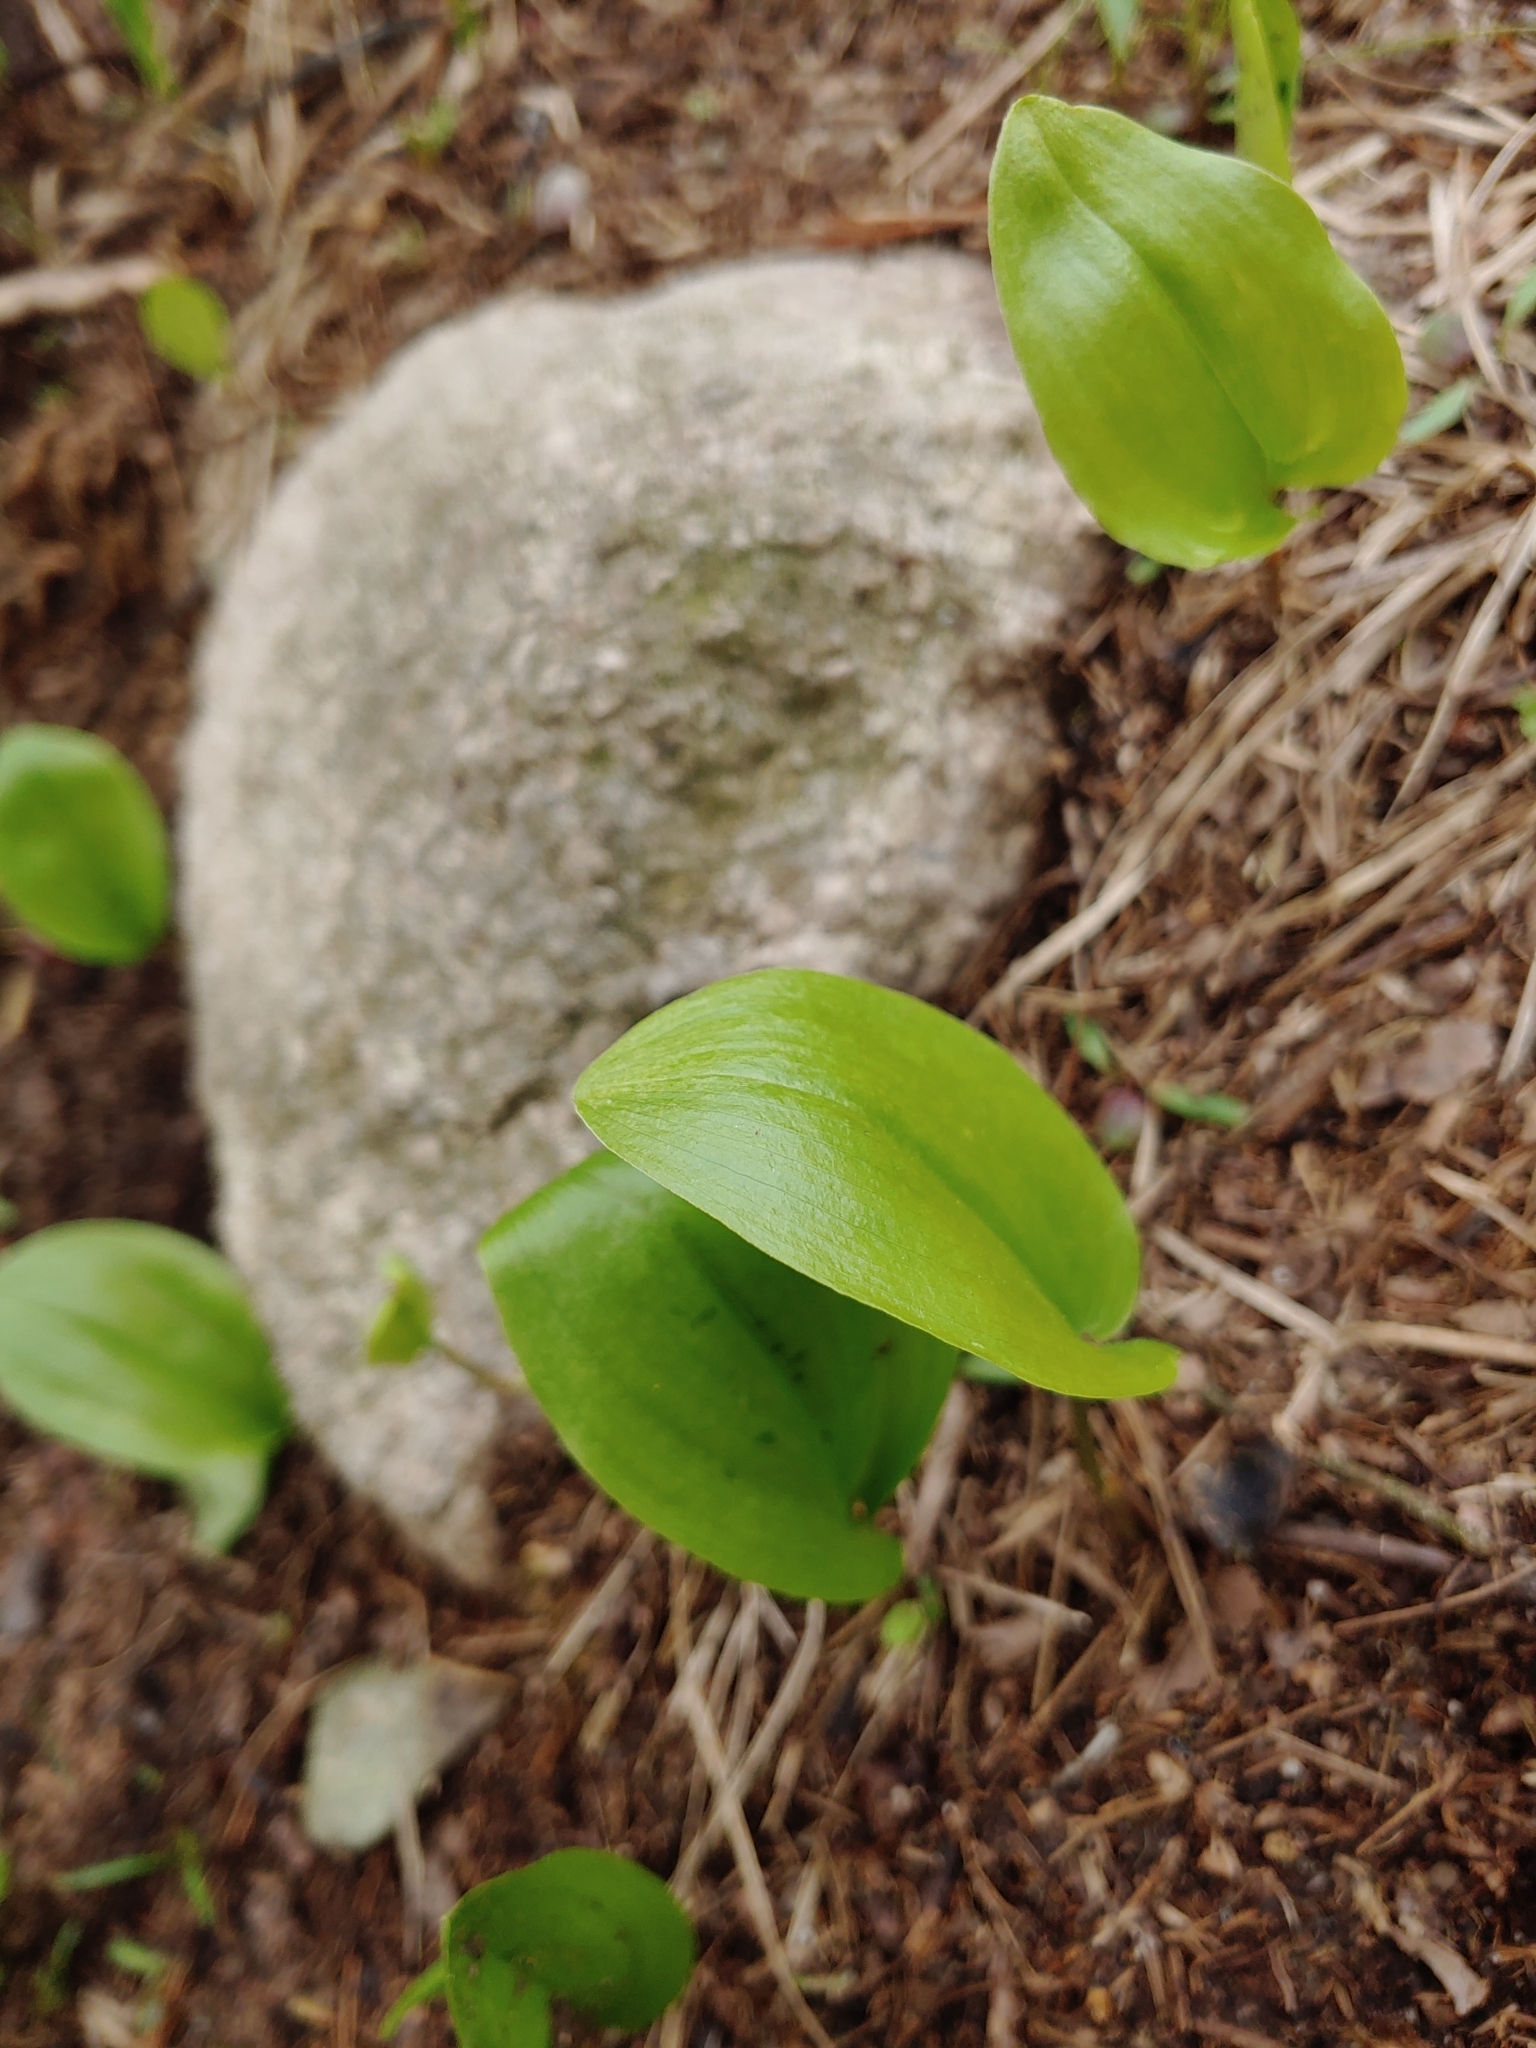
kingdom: Plantae
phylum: Tracheophyta
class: Liliopsida
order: Asparagales
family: Asparagaceae
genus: Maianthemum
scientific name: Maianthemum canadense
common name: False lily-of-the-valley
